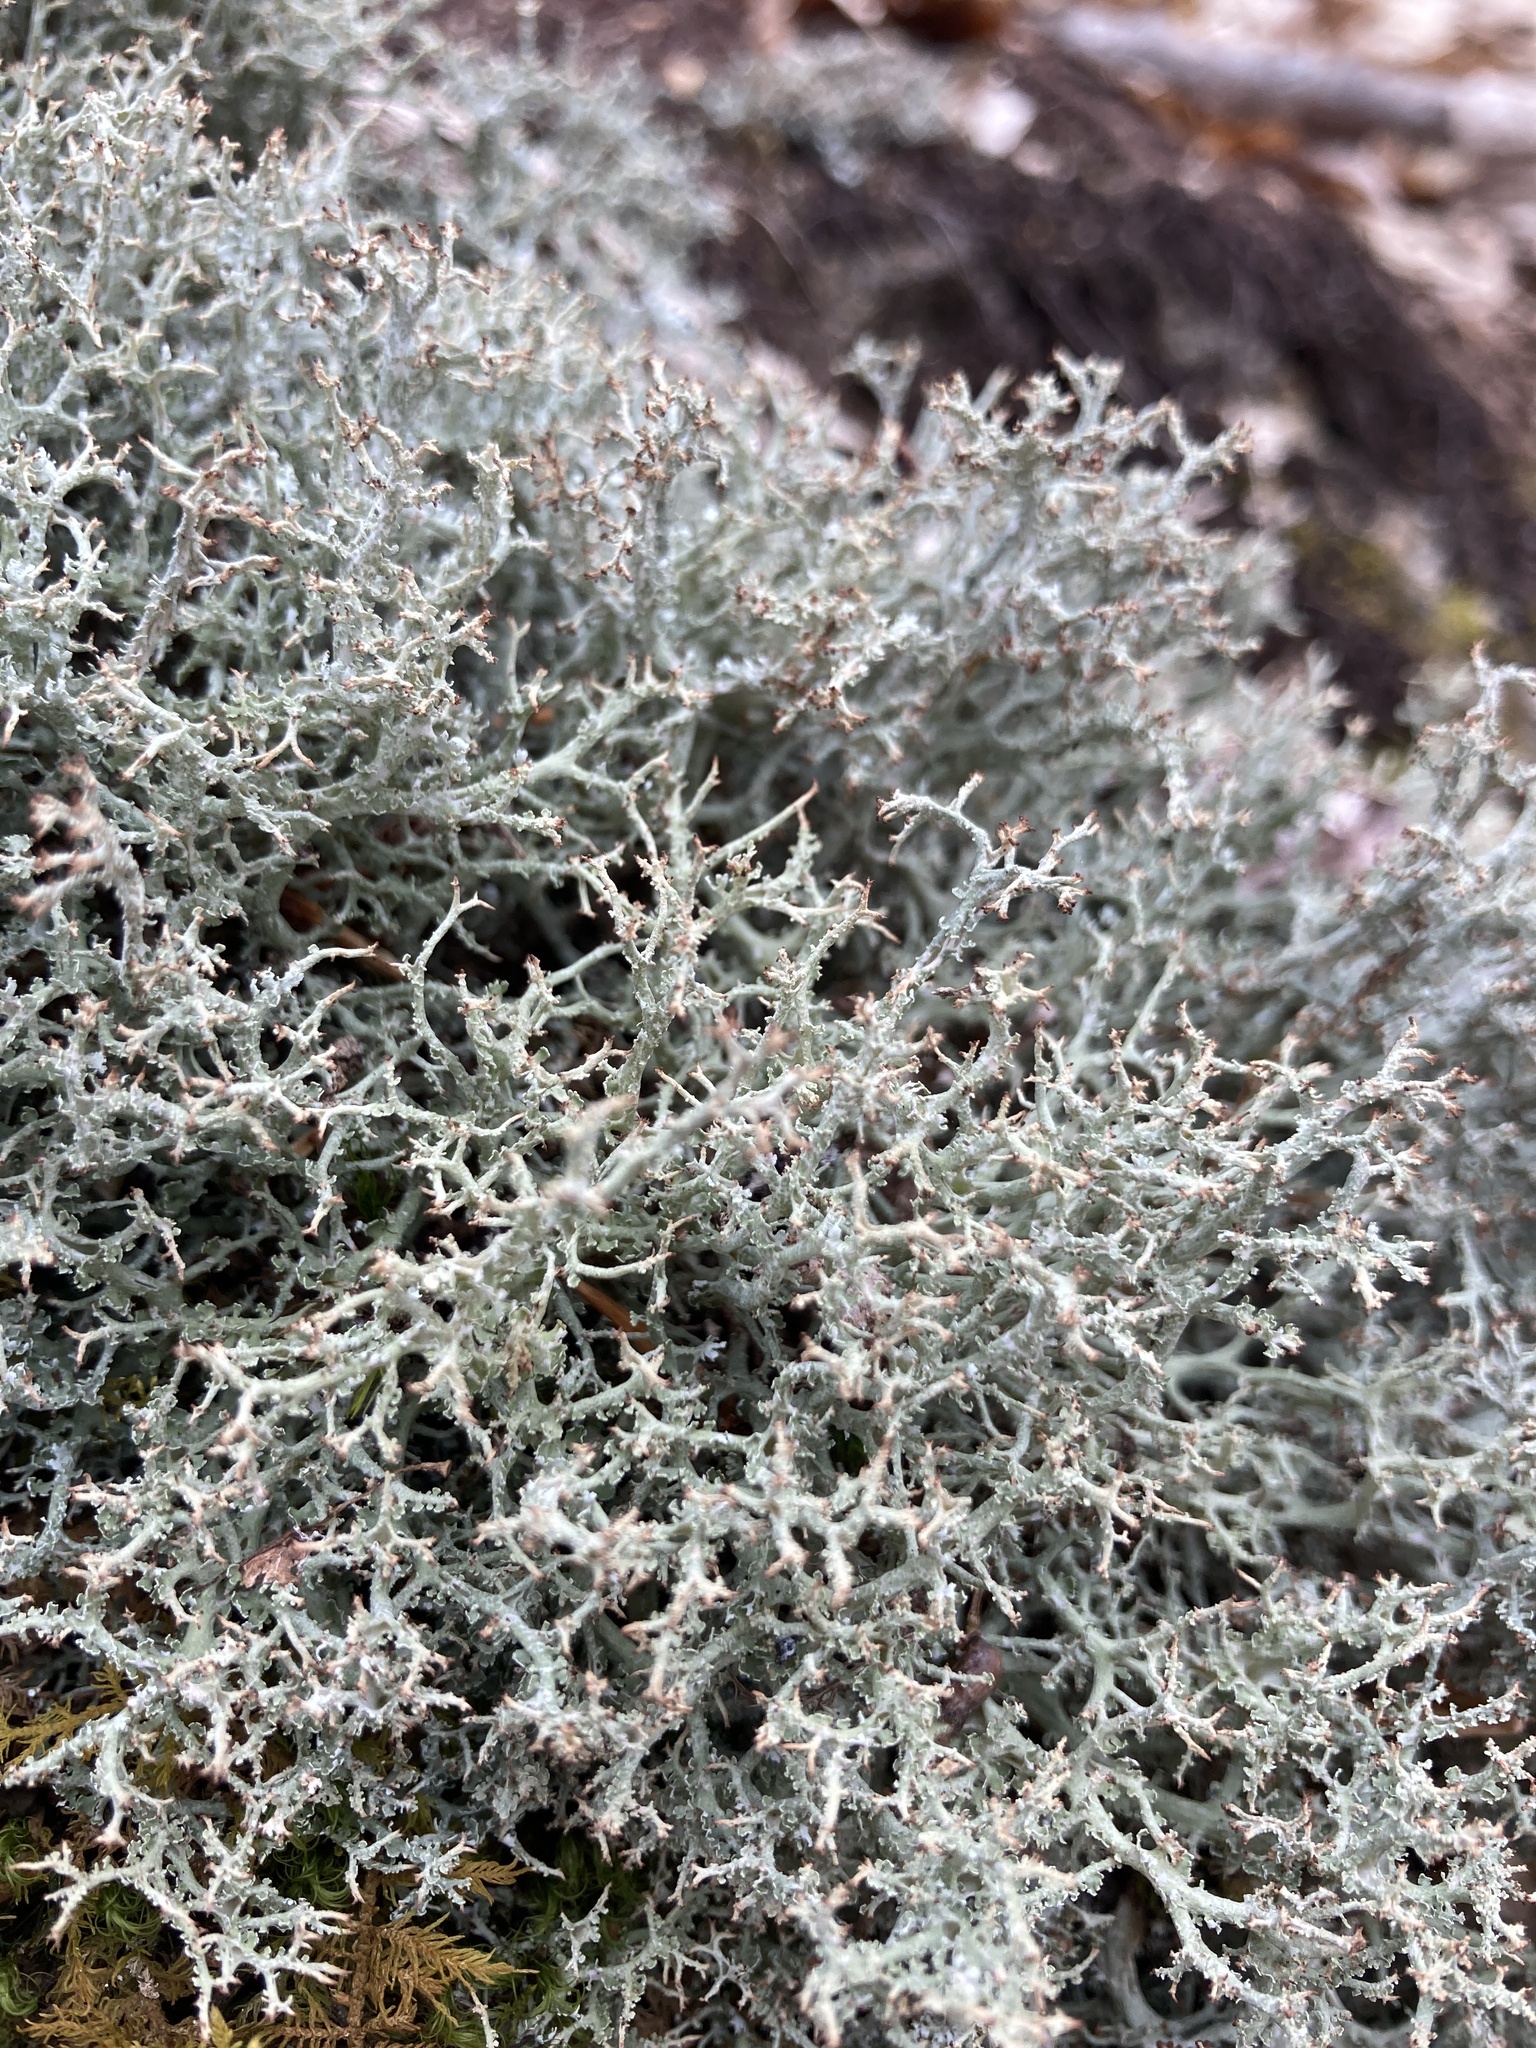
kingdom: Fungi
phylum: Ascomycota
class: Lecanoromycetes
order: Lecanorales
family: Cladoniaceae
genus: Cladonia
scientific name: Cladonia rangiferina
